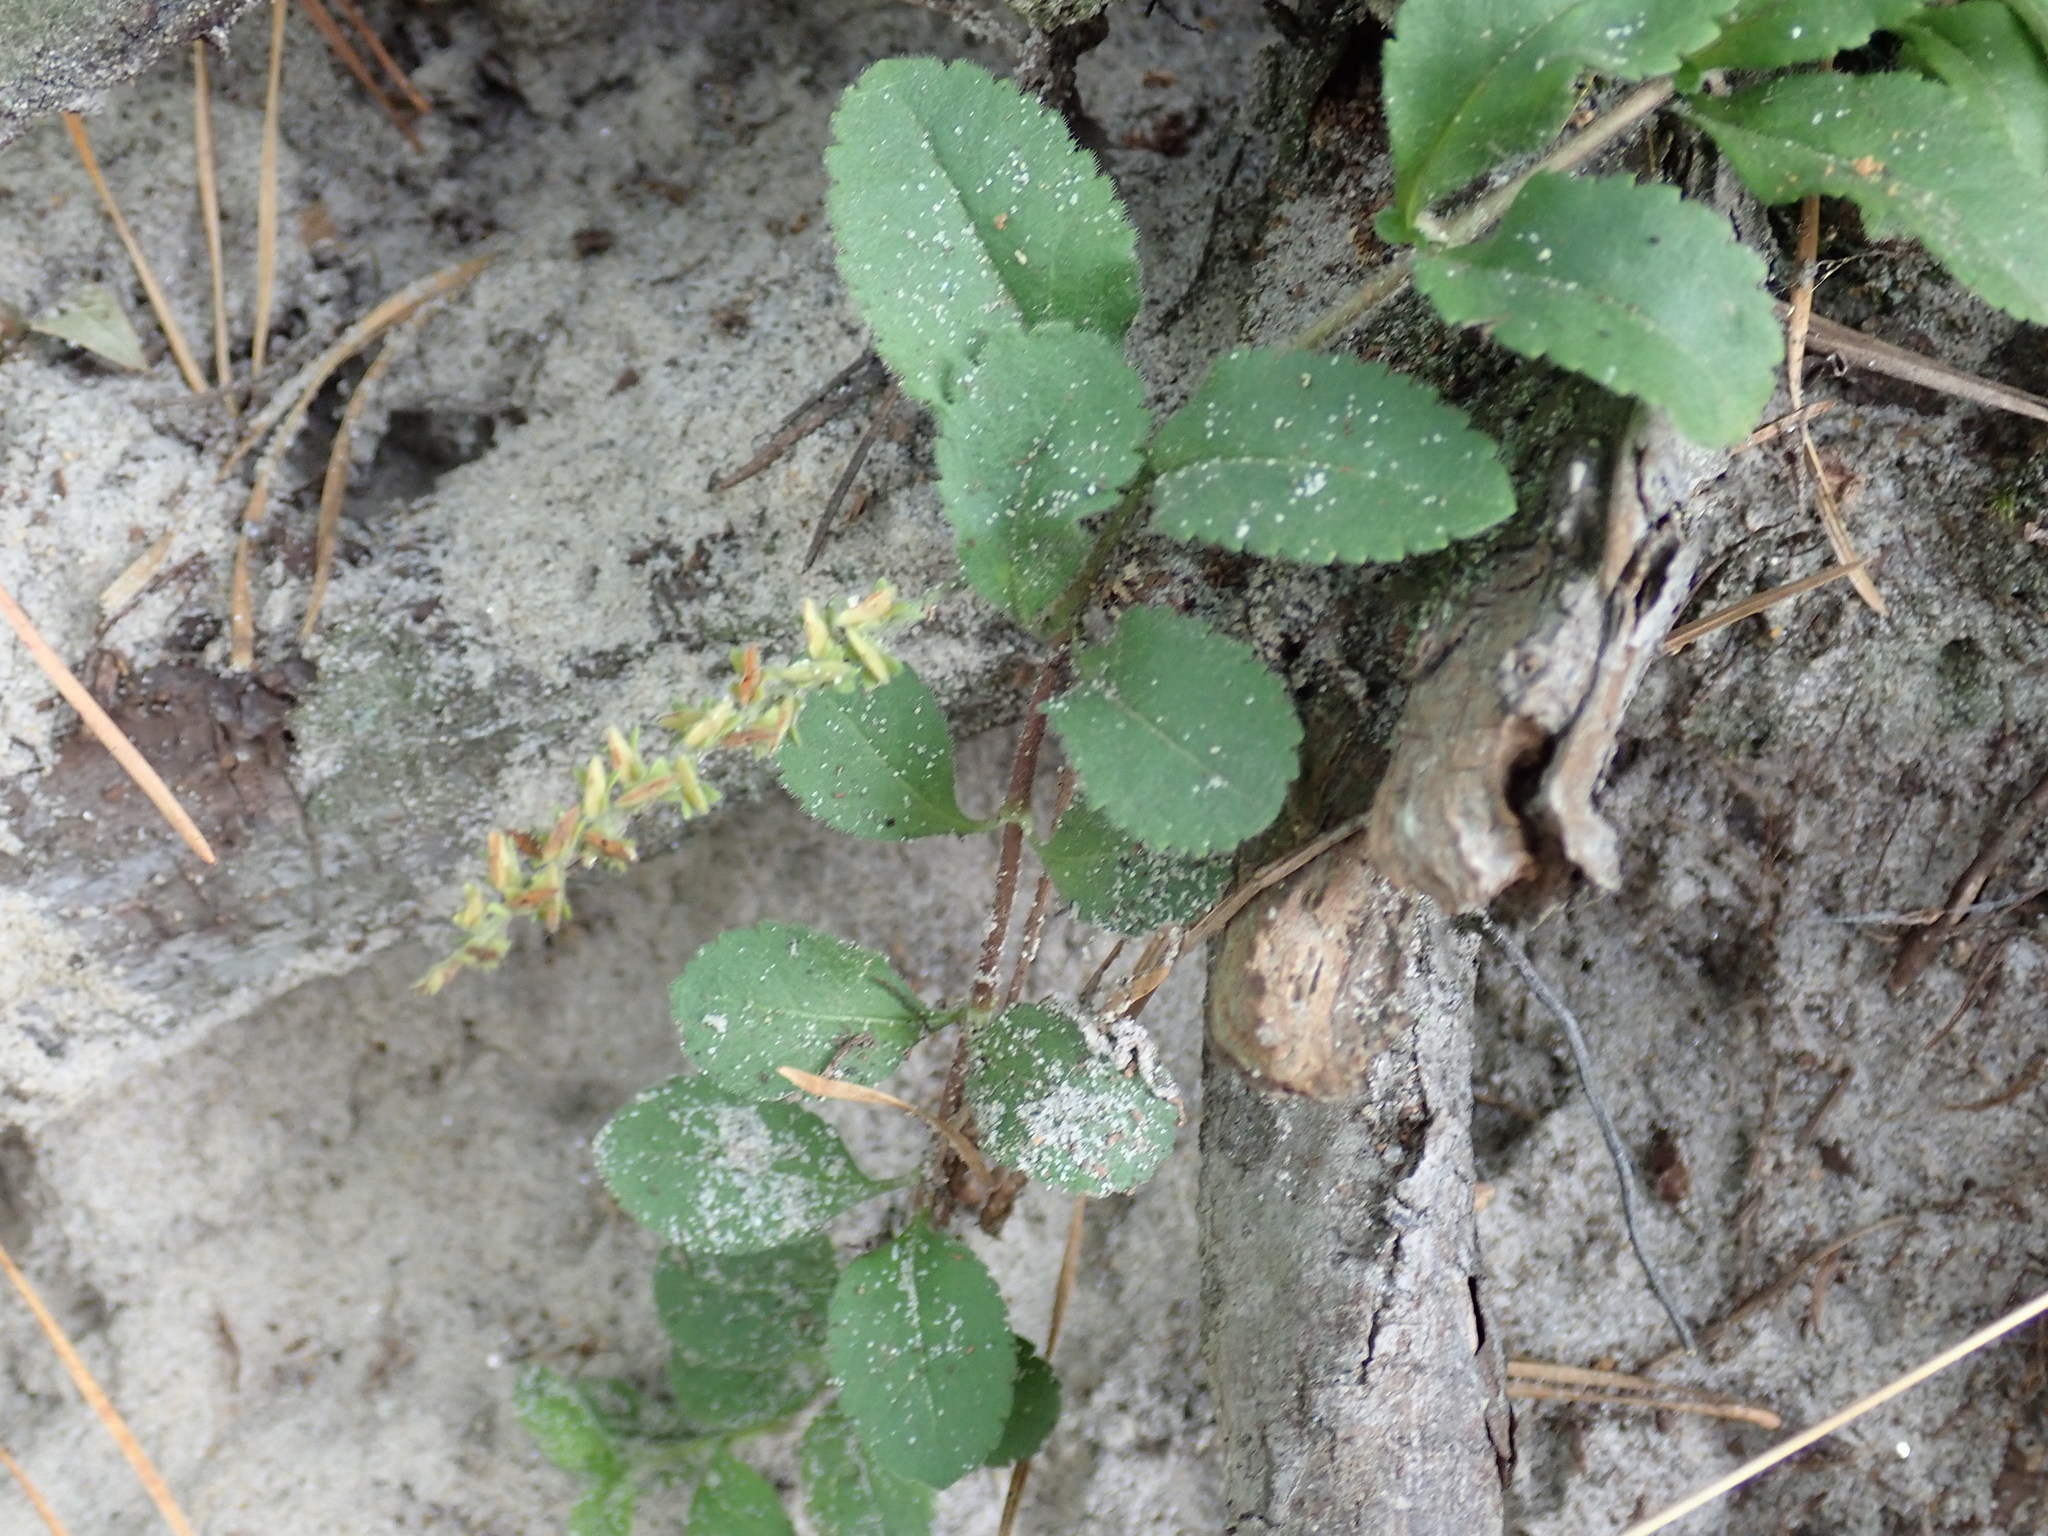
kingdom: Plantae
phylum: Tracheophyta
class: Magnoliopsida
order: Lamiales
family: Plantaginaceae
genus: Veronica
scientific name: Veronica officinalis
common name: Common speedwell
